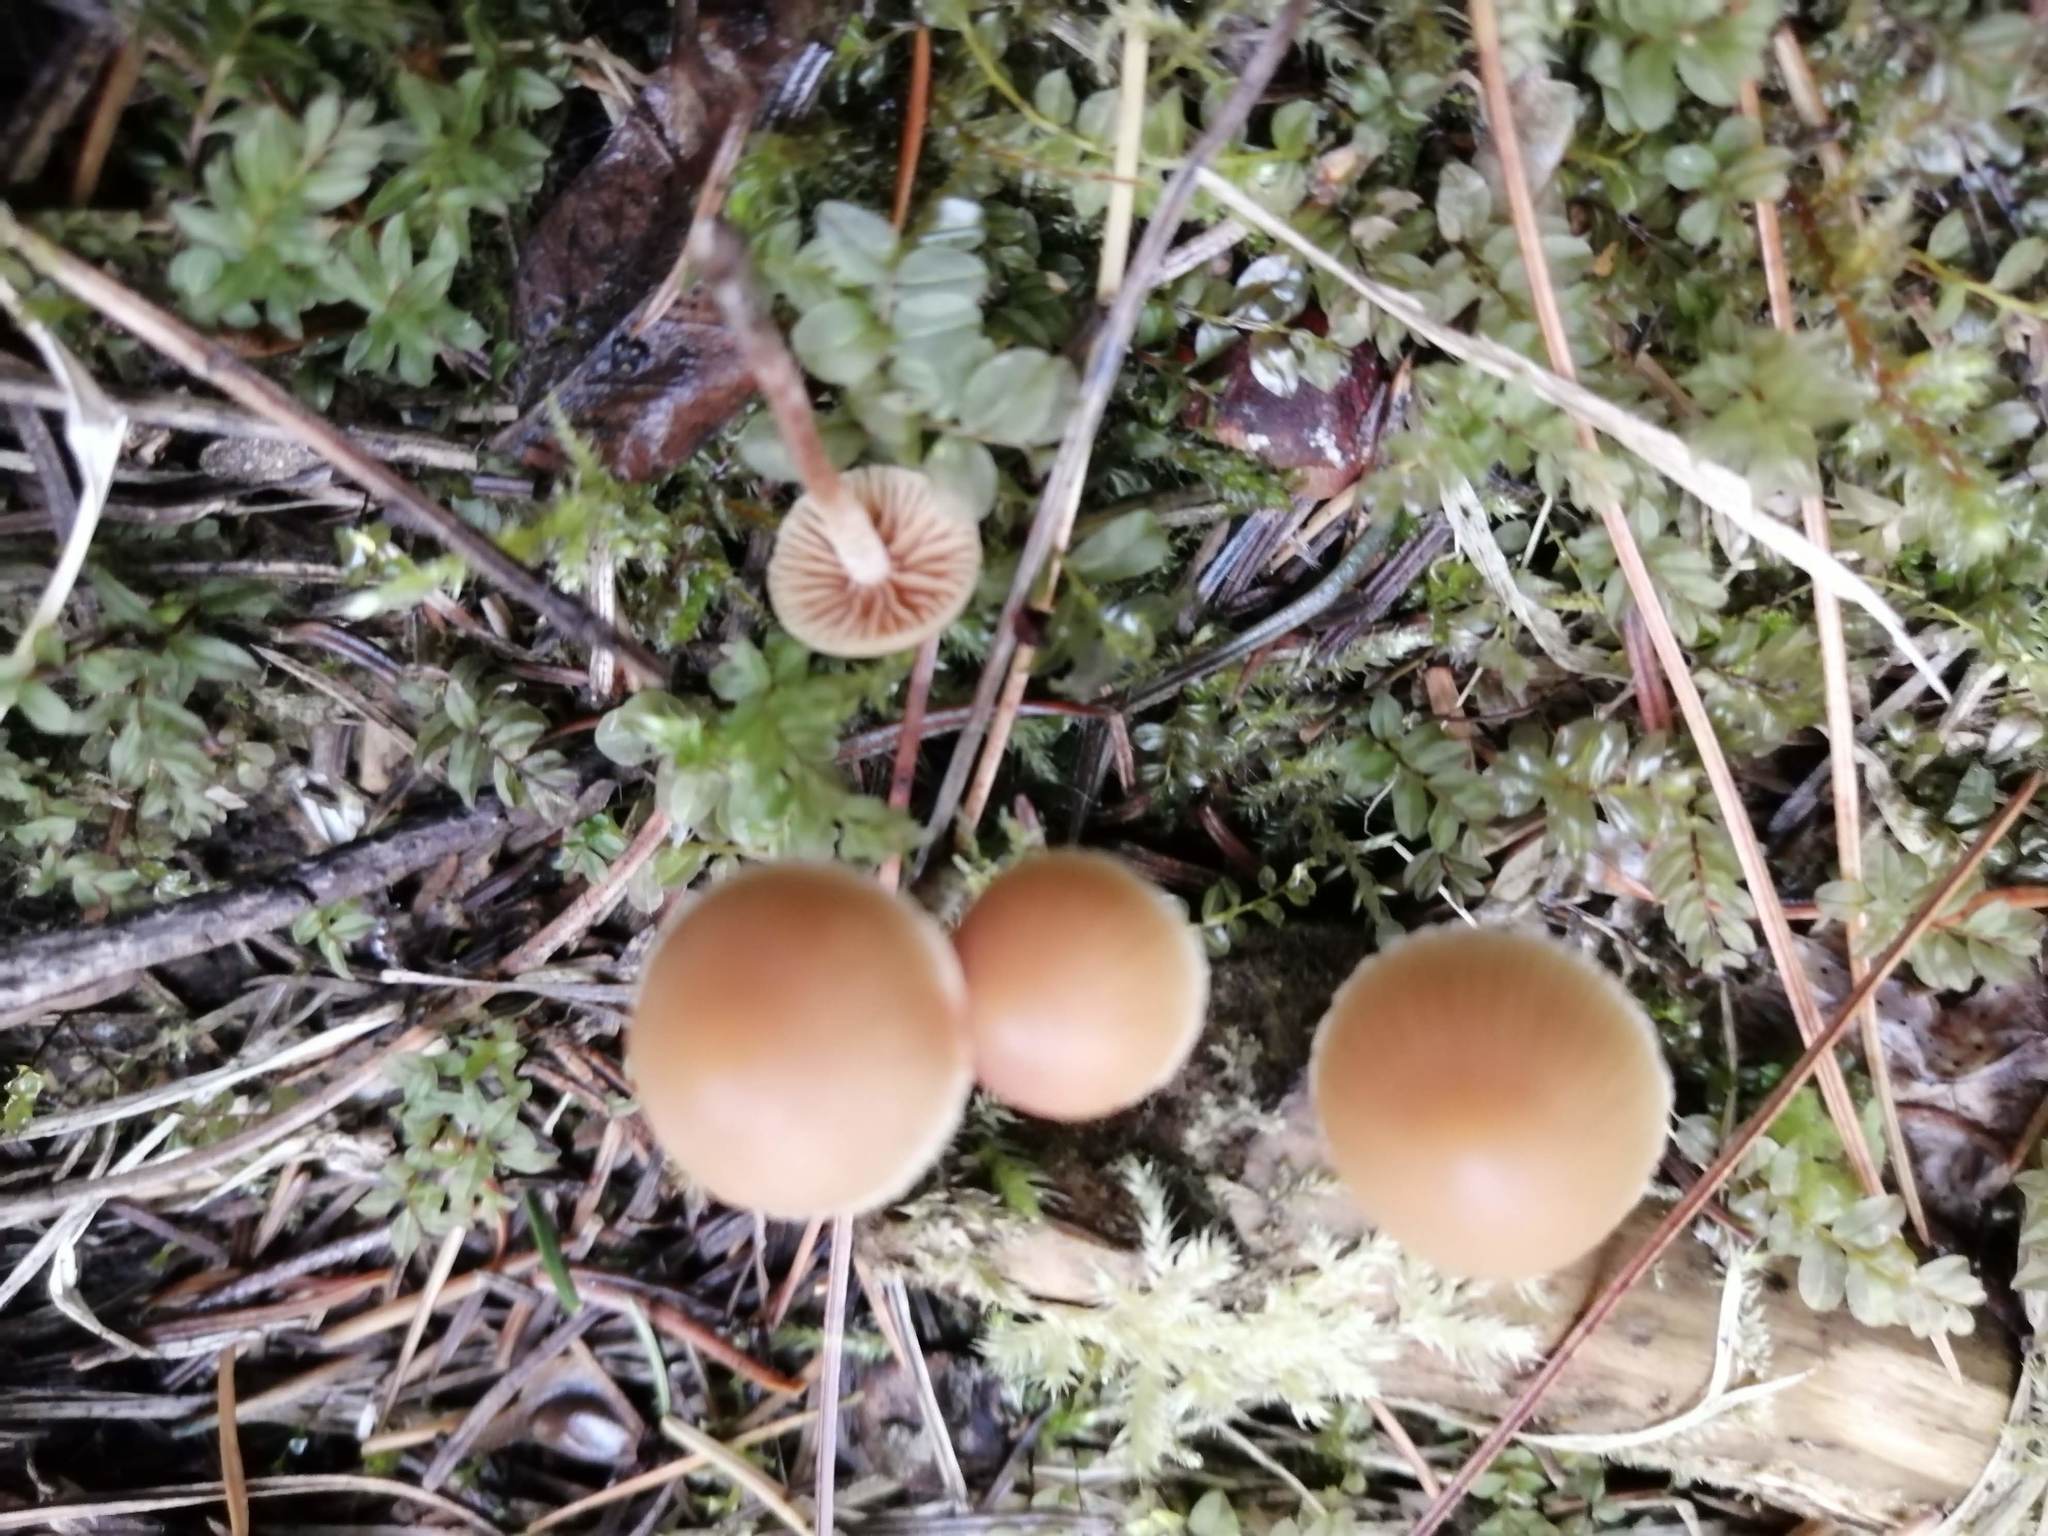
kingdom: Fungi
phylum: Basidiomycota
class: Agaricomycetes
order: Agaricales
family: Strophariaceae
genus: Pholiota
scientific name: Pholiota lignicola
